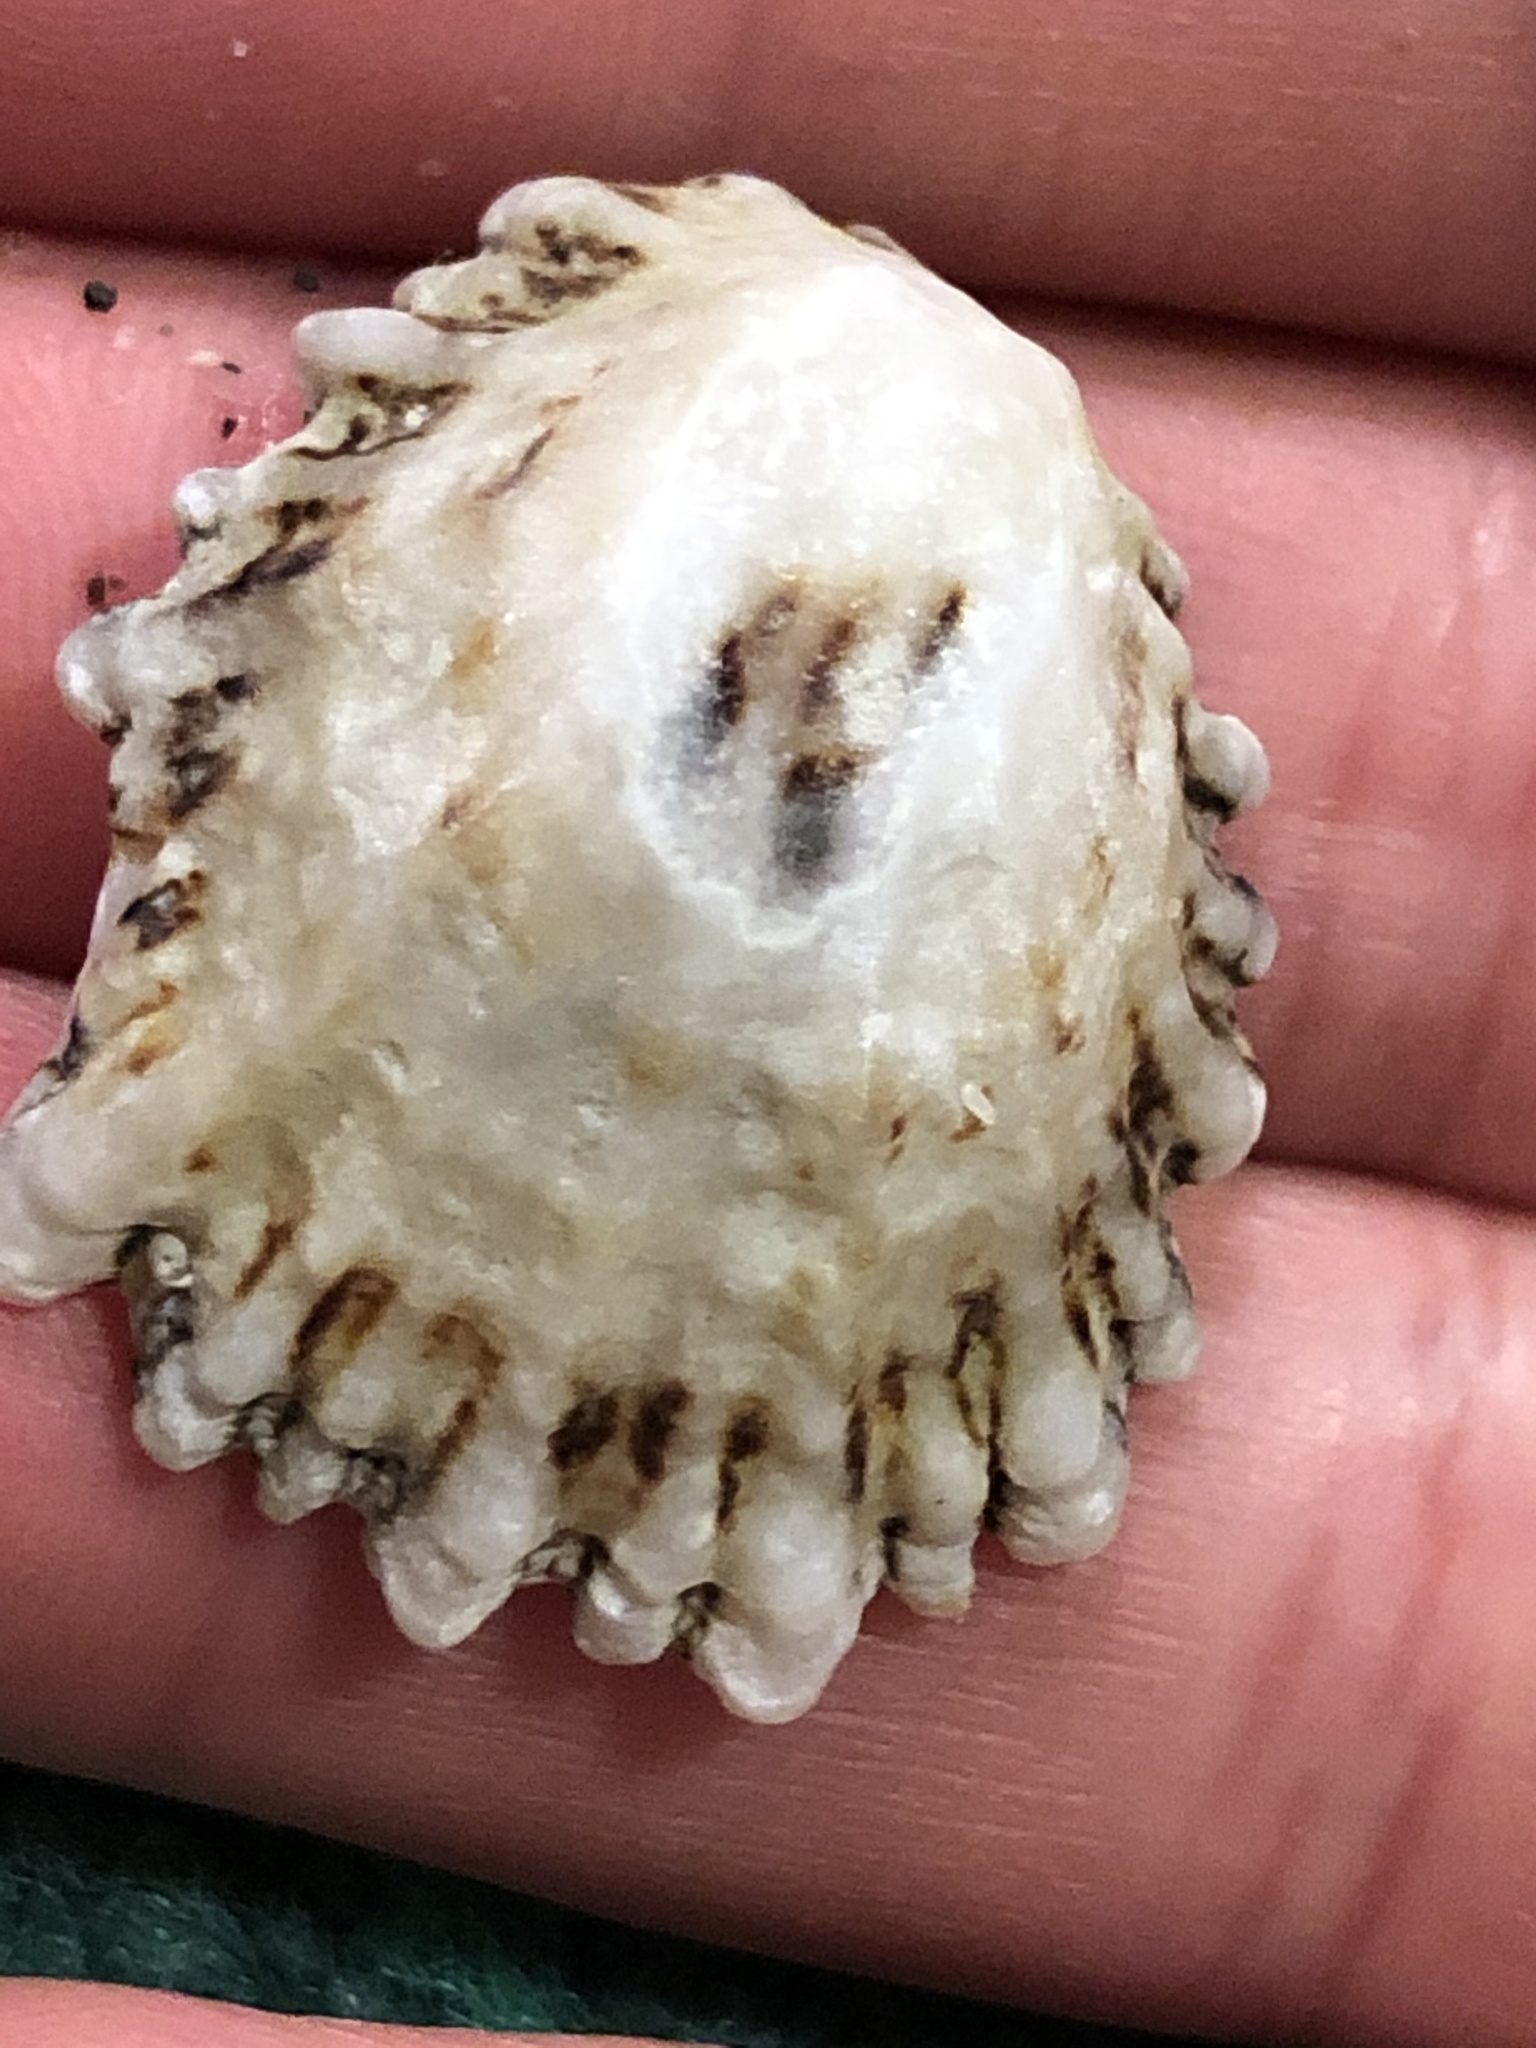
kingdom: Animalia
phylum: Mollusca
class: Gastropoda
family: Lottiidae
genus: Lottia
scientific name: Lottia scabra
